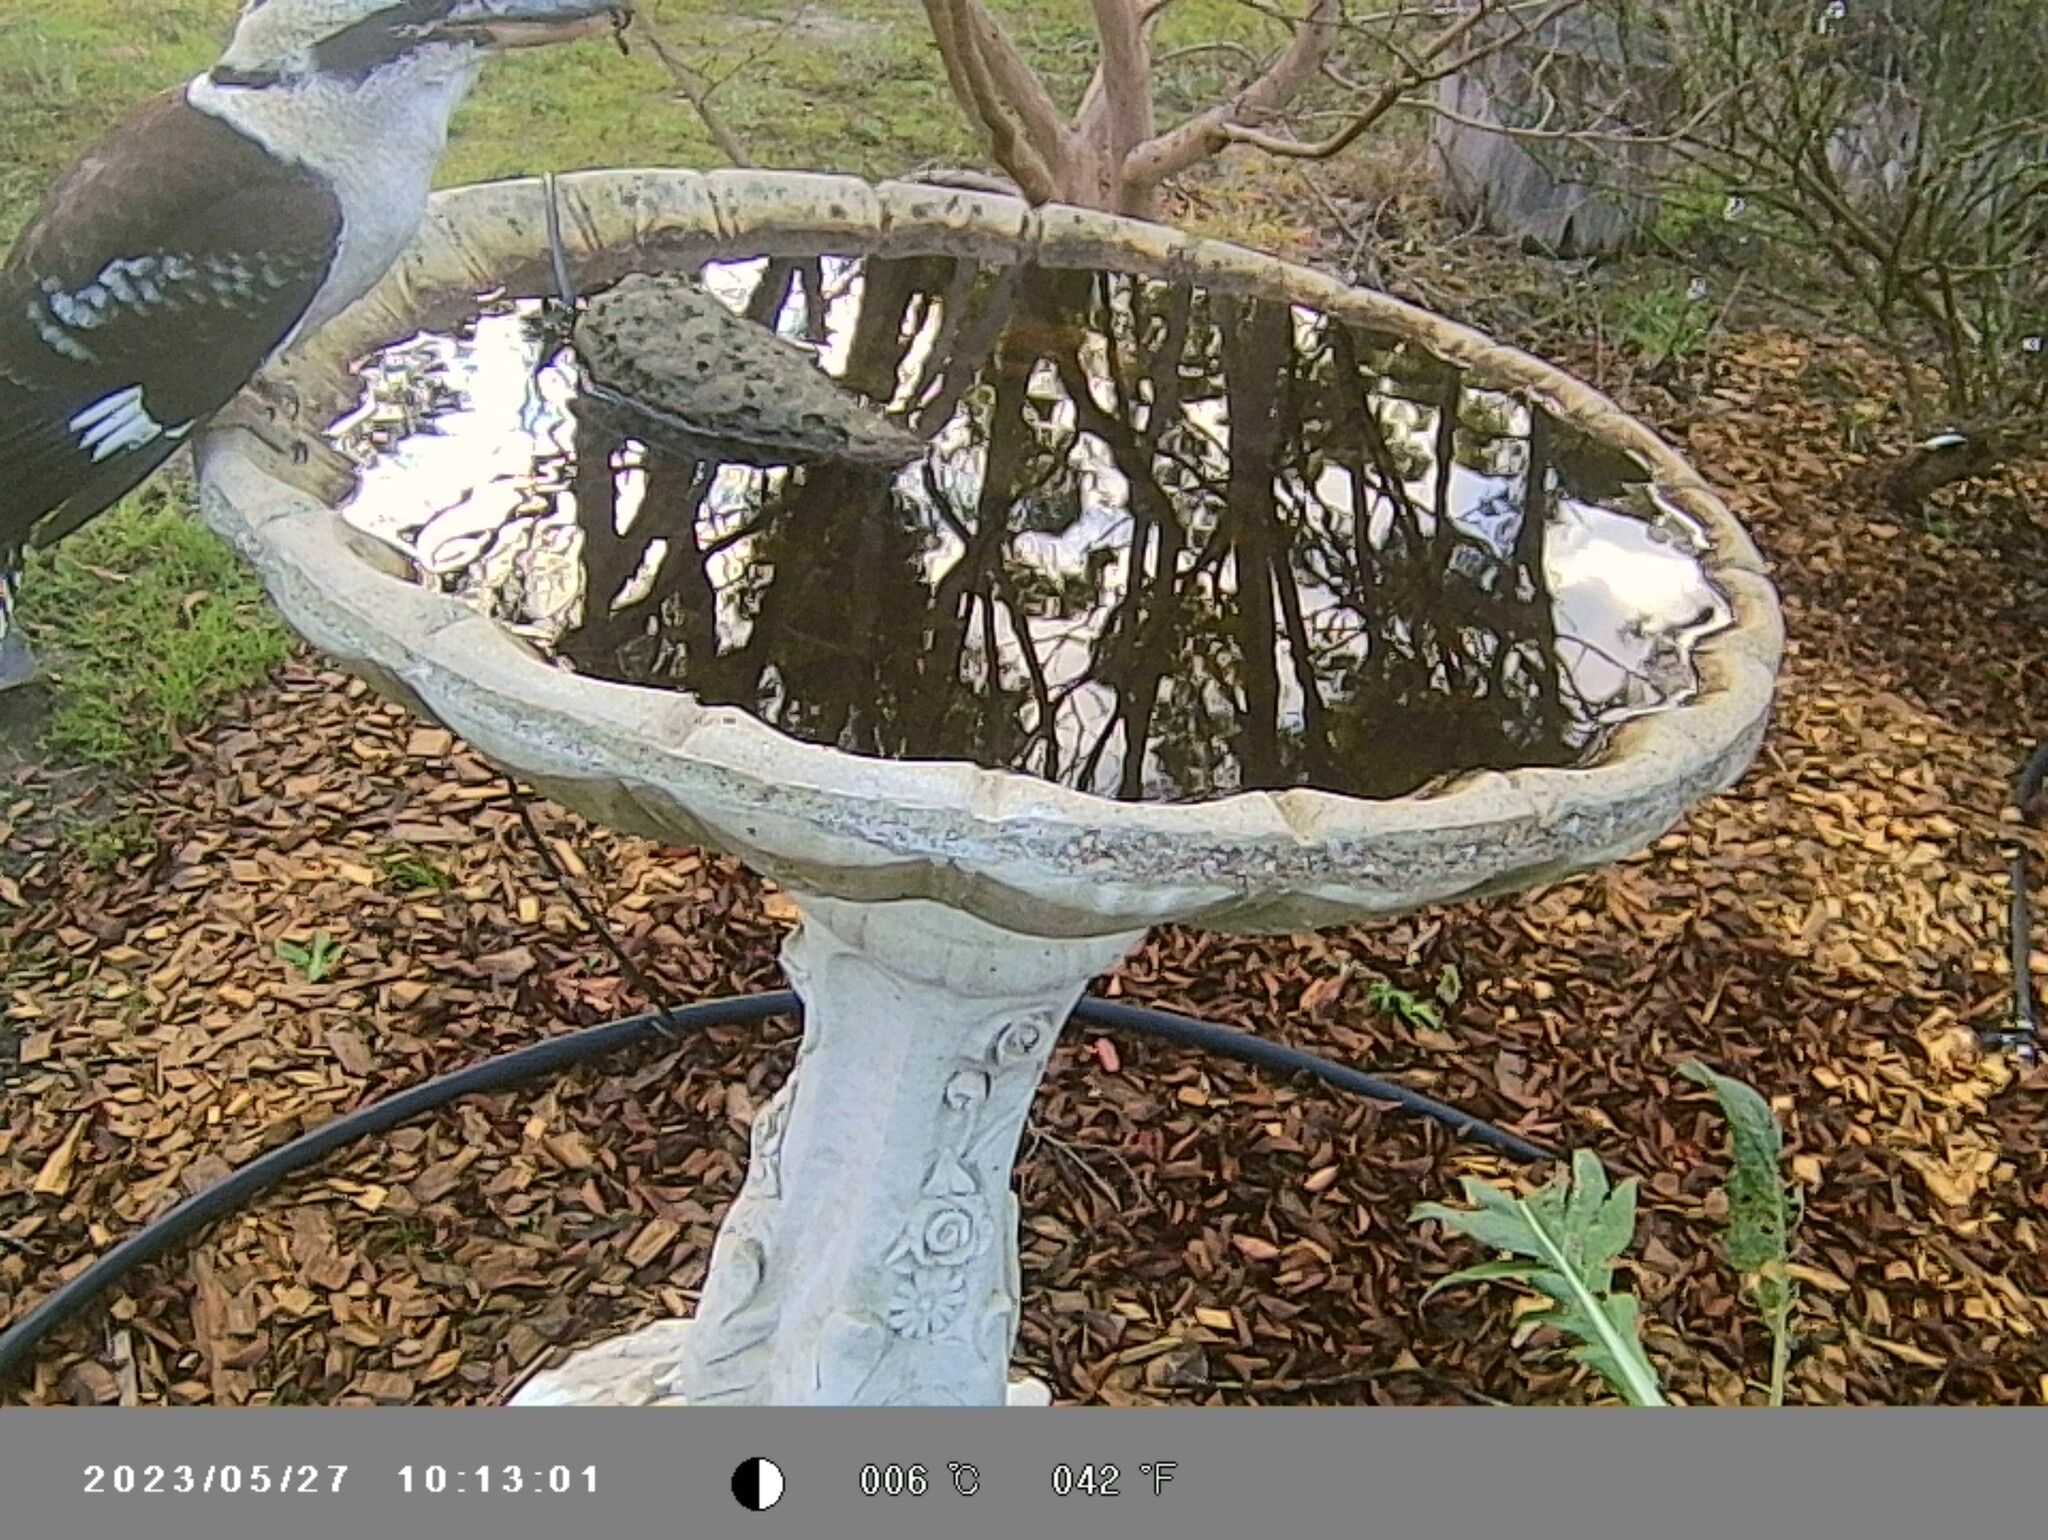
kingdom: Animalia
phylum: Chordata
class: Aves
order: Coraciiformes
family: Alcedinidae
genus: Dacelo
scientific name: Dacelo novaeguineae
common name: Laughing kookaburra
